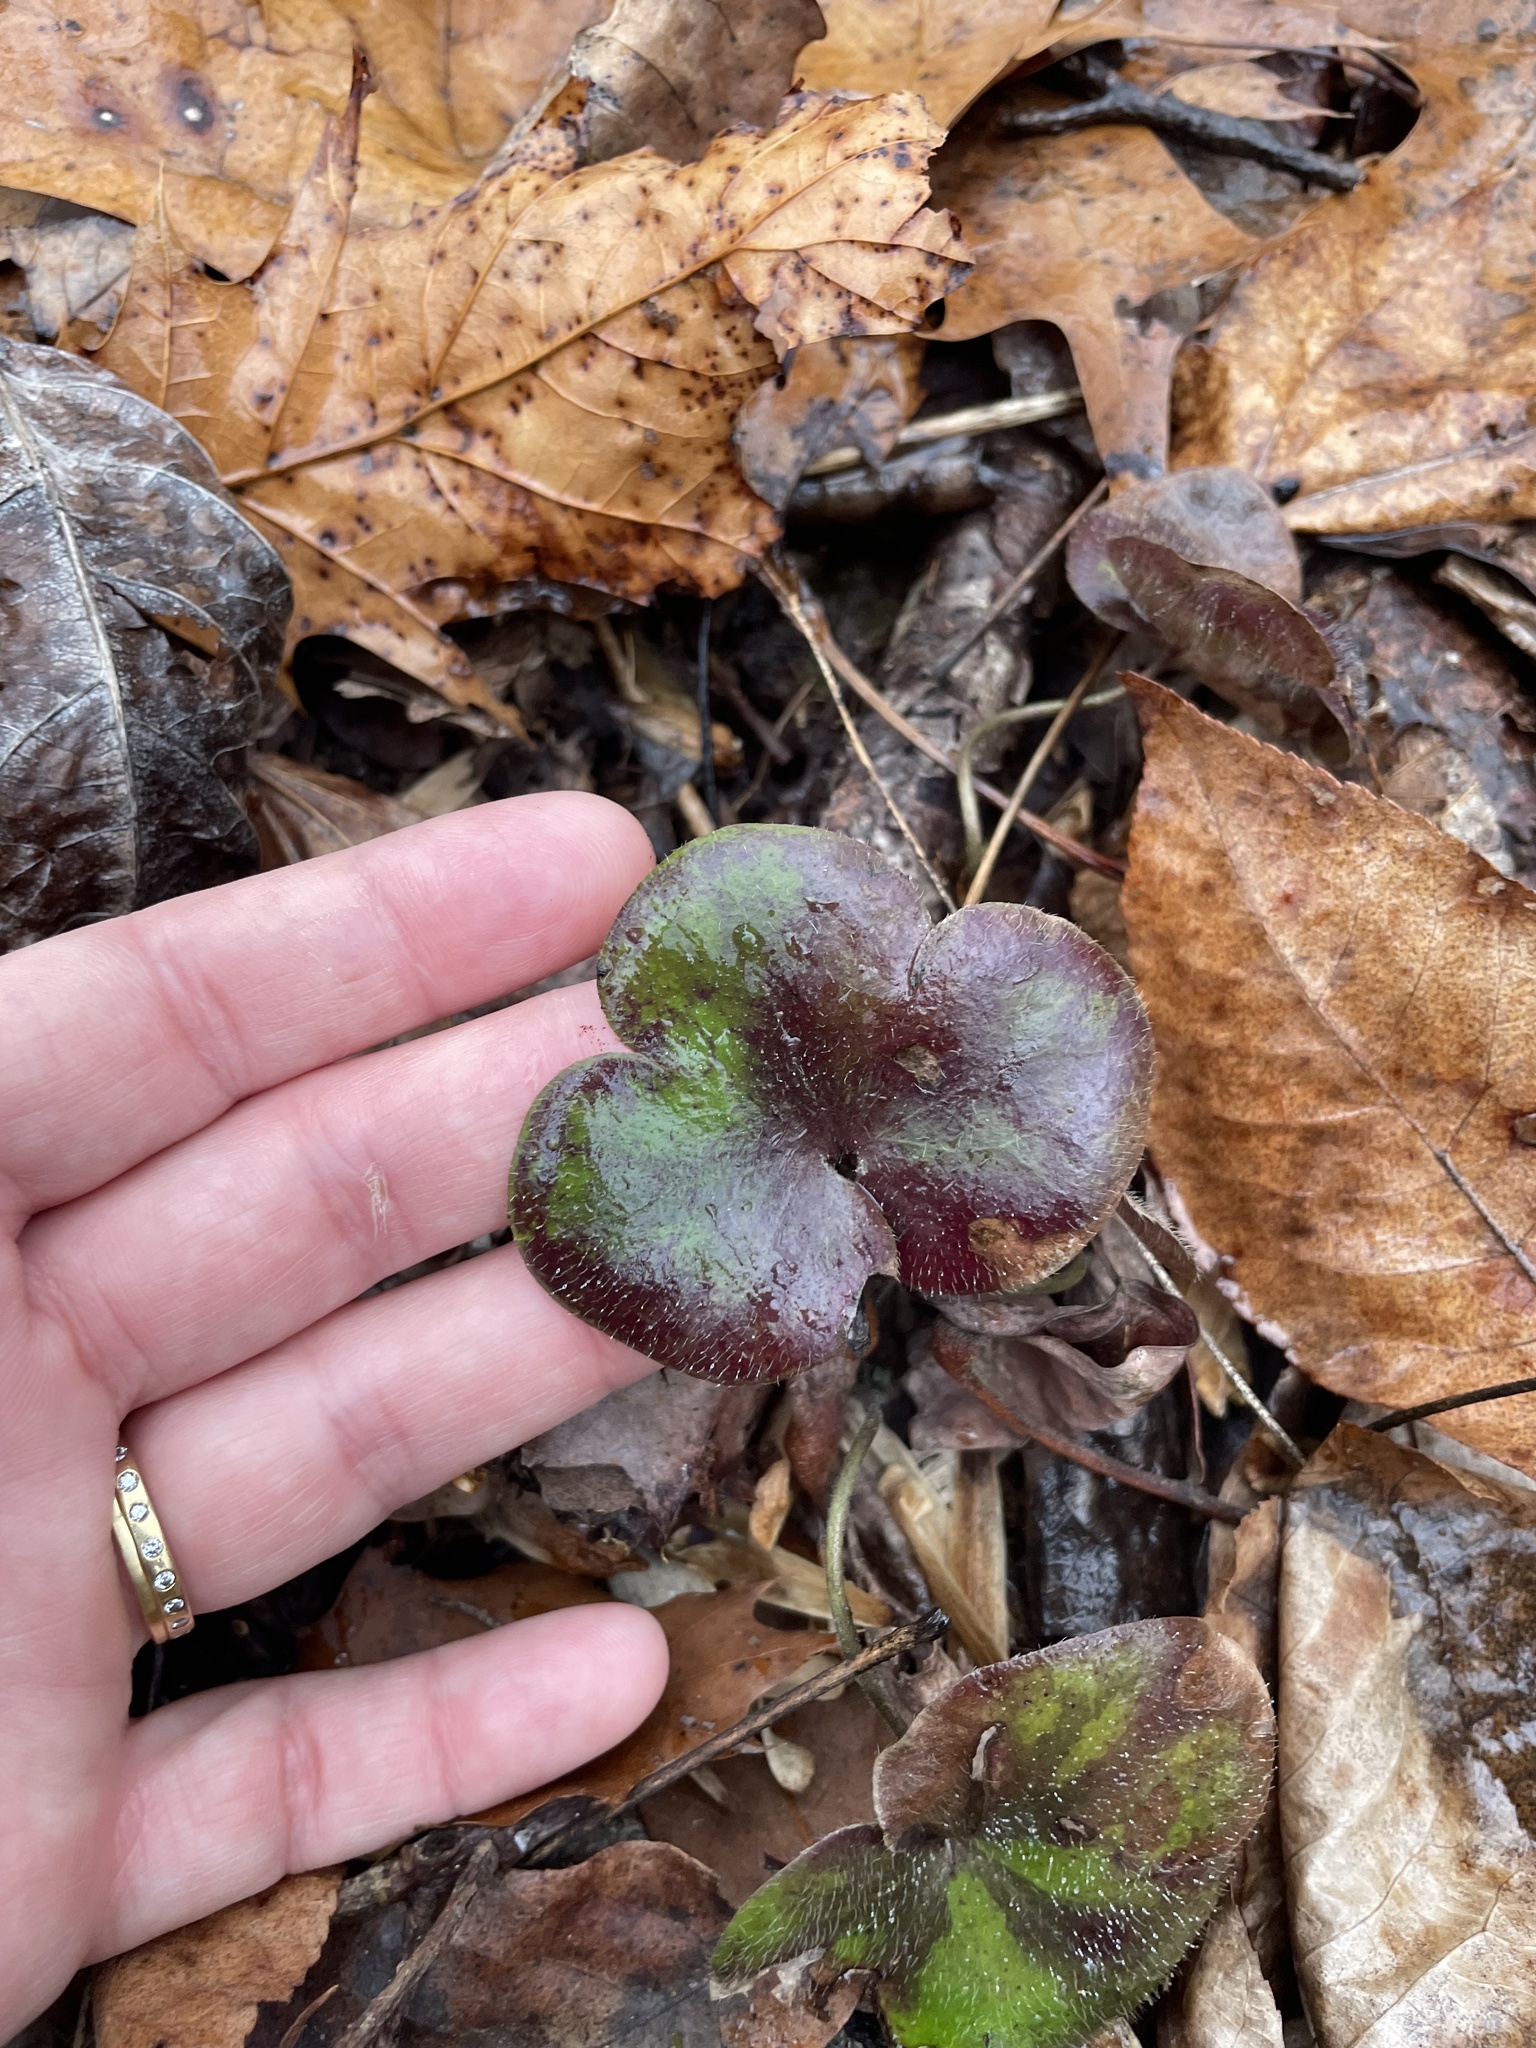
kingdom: Plantae
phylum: Tracheophyta
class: Magnoliopsida
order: Ranunculales
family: Ranunculaceae
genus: Hepatica
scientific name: Hepatica americana
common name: American hepatica
